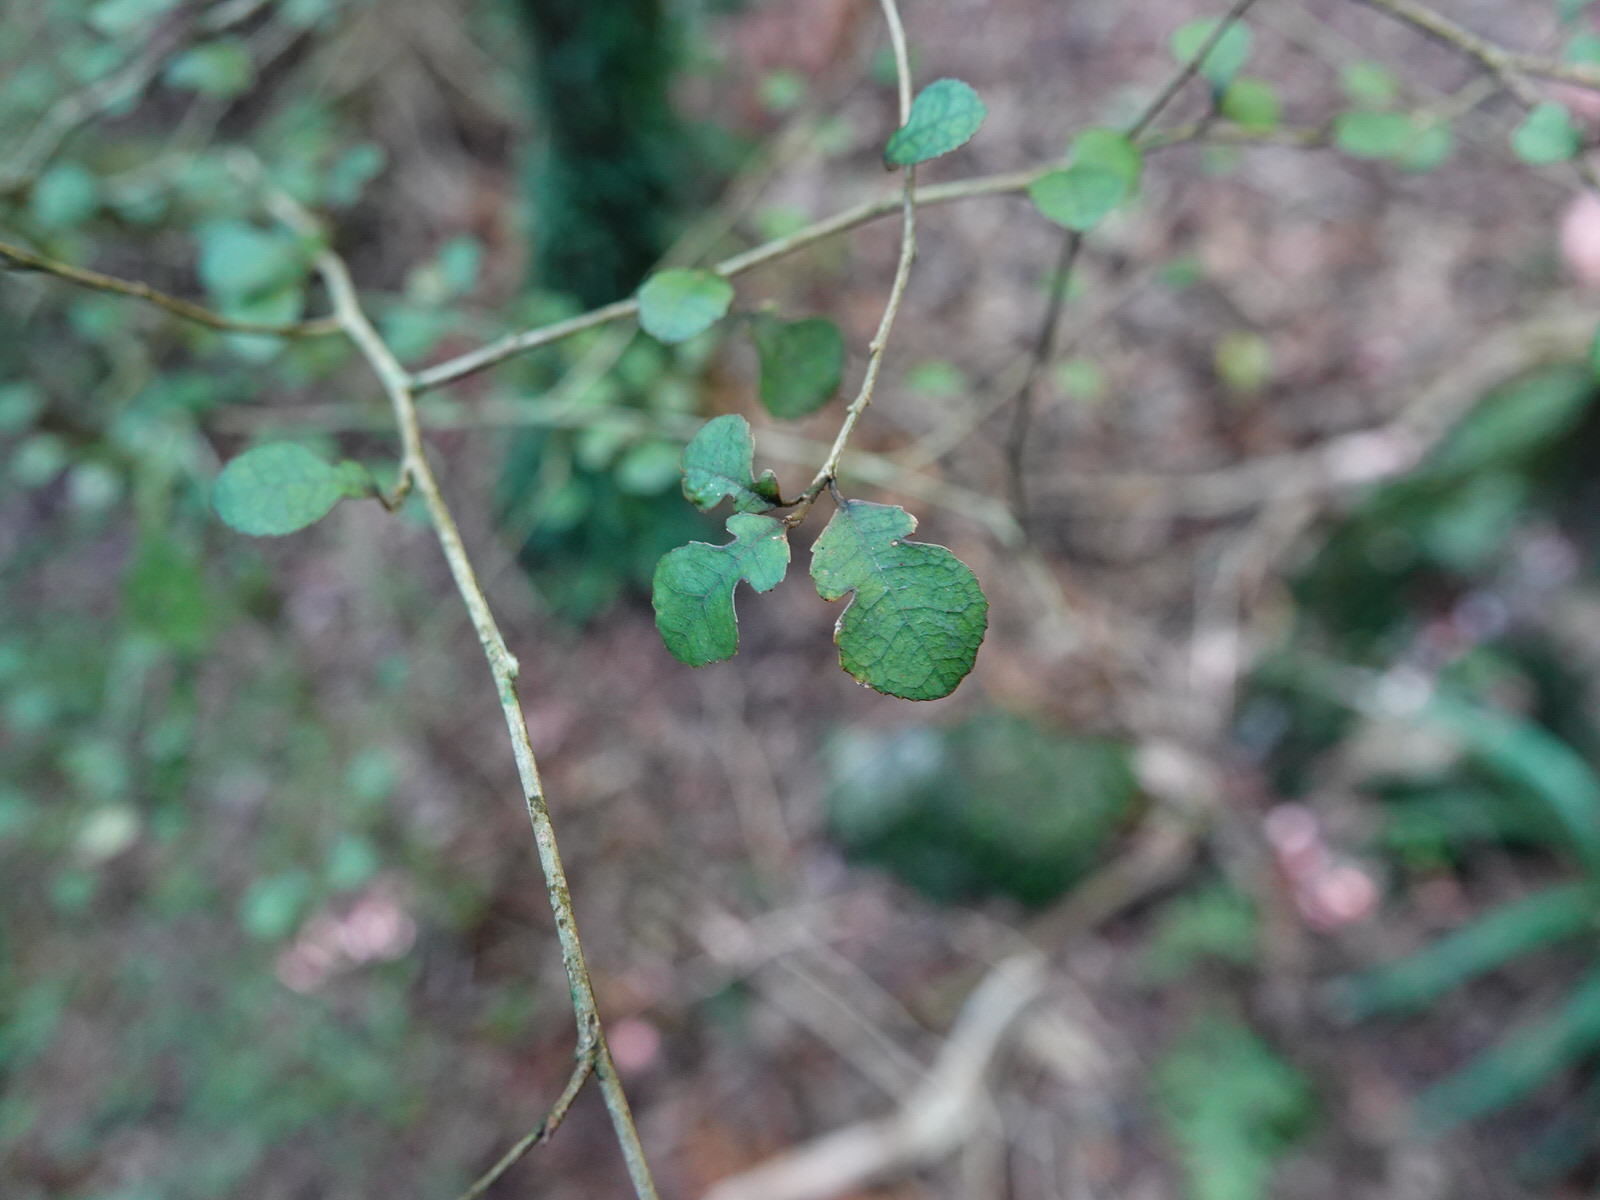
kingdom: Plantae
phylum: Tracheophyta
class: Magnoliopsida
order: Rosales
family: Moraceae
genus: Paratrophis
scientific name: Paratrophis microphylla
